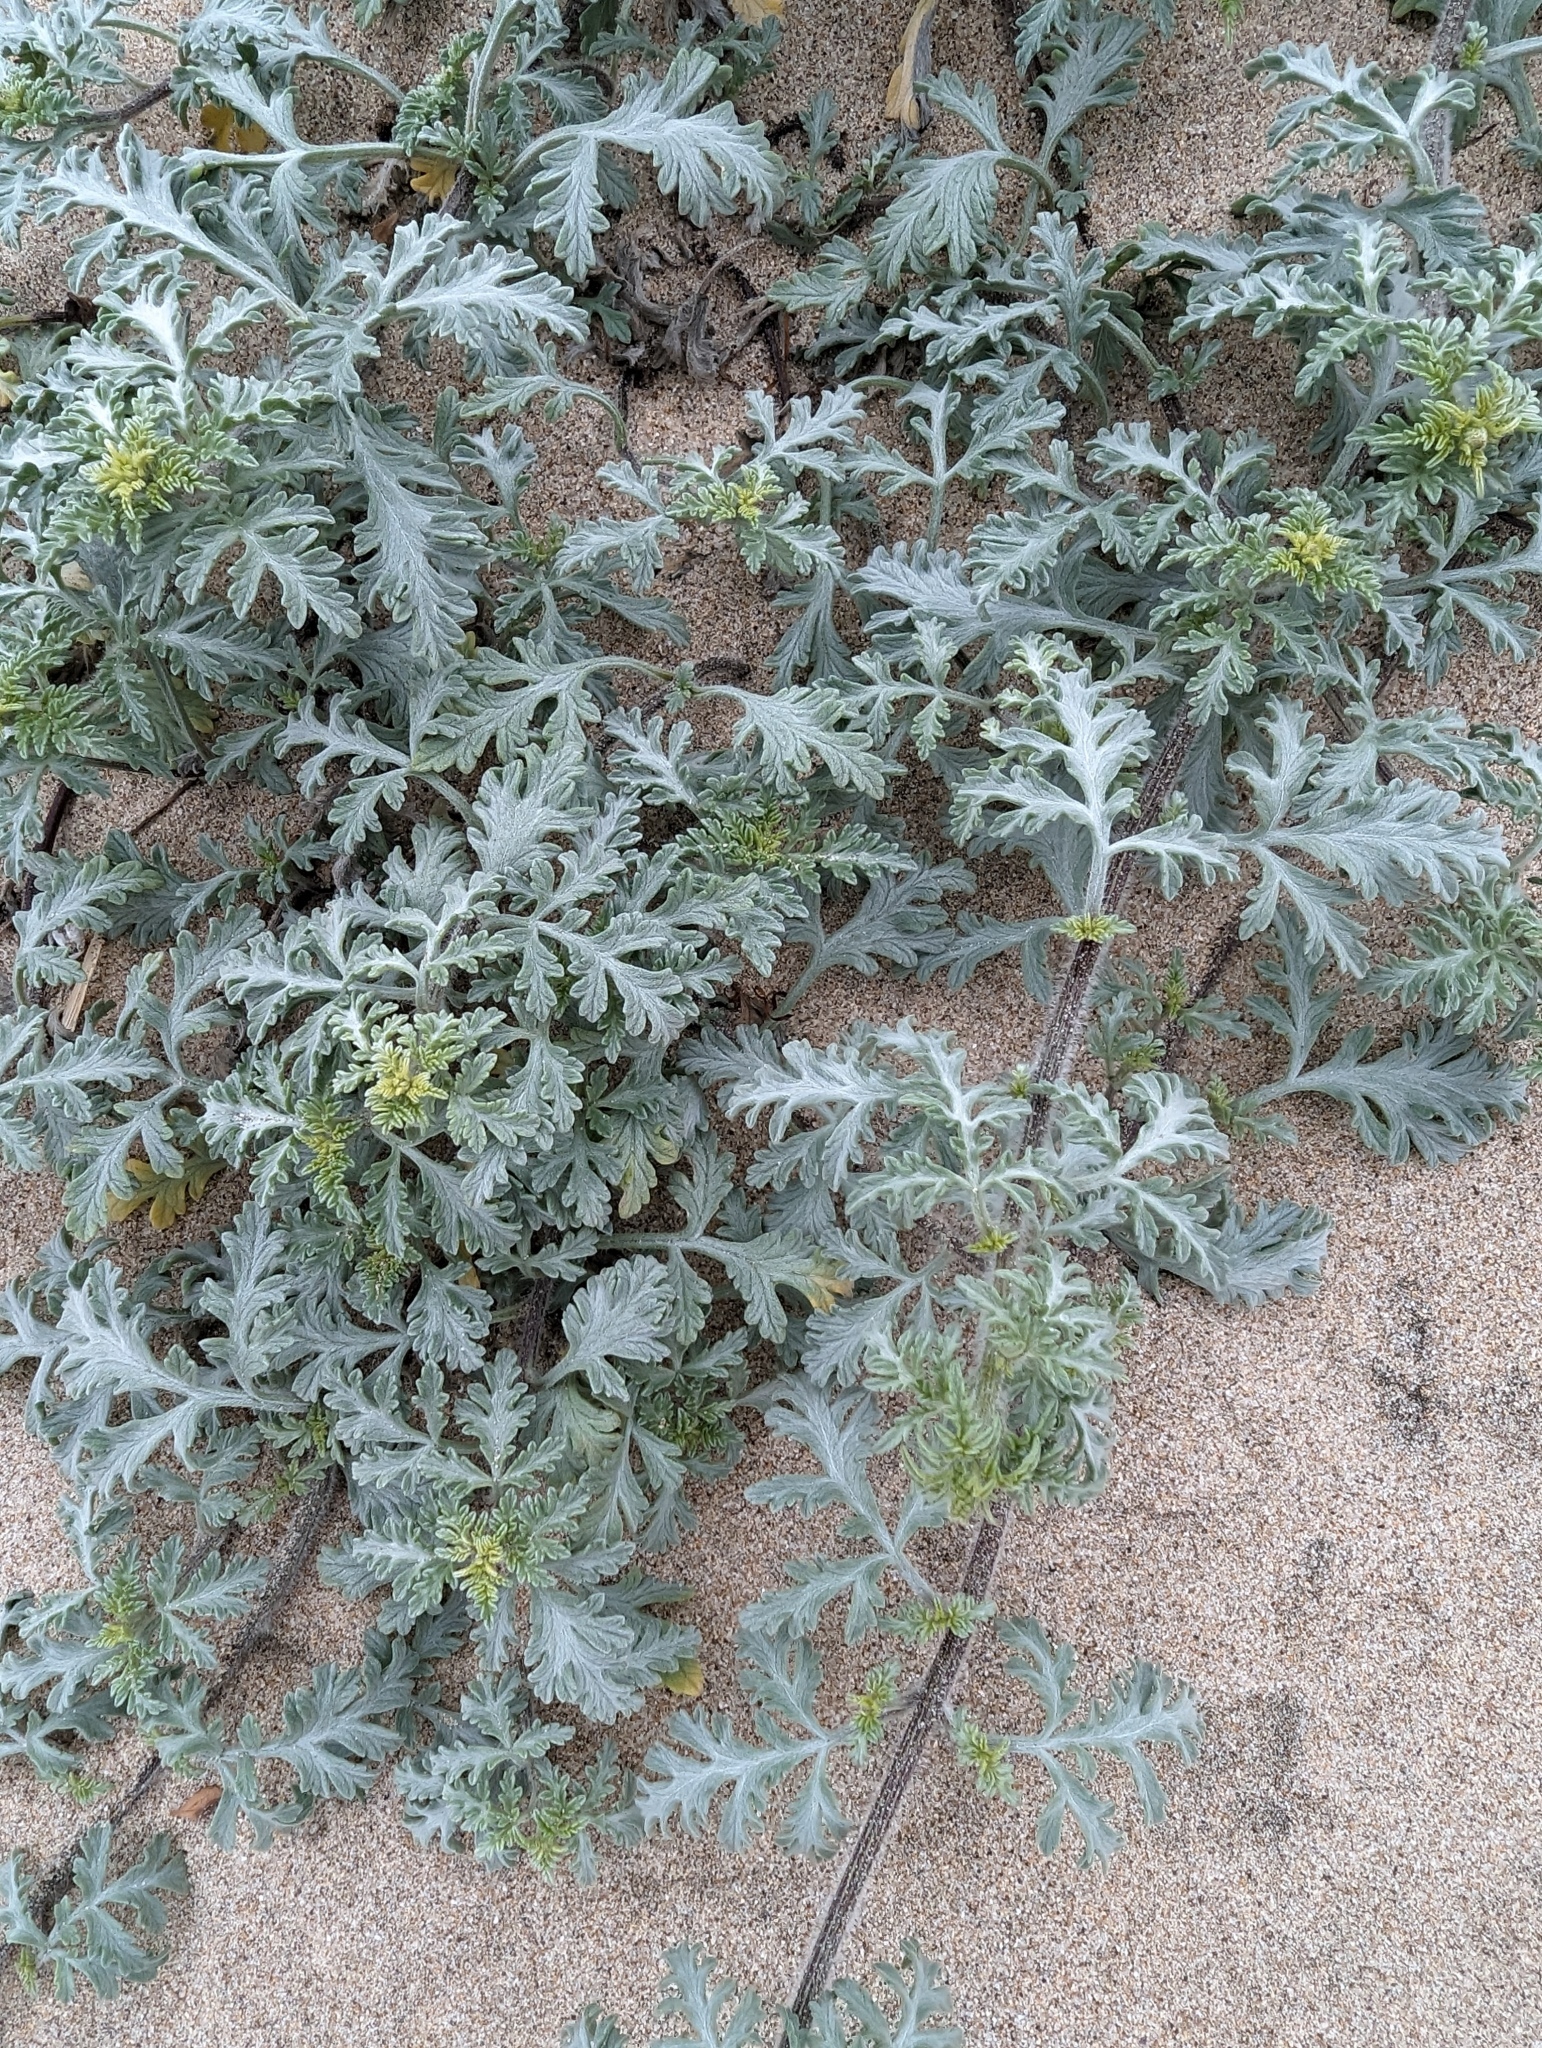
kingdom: Plantae
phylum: Tracheophyta
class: Magnoliopsida
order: Asterales
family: Asteraceae
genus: Ambrosia
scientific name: Ambrosia chamissonis
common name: Beachbur
